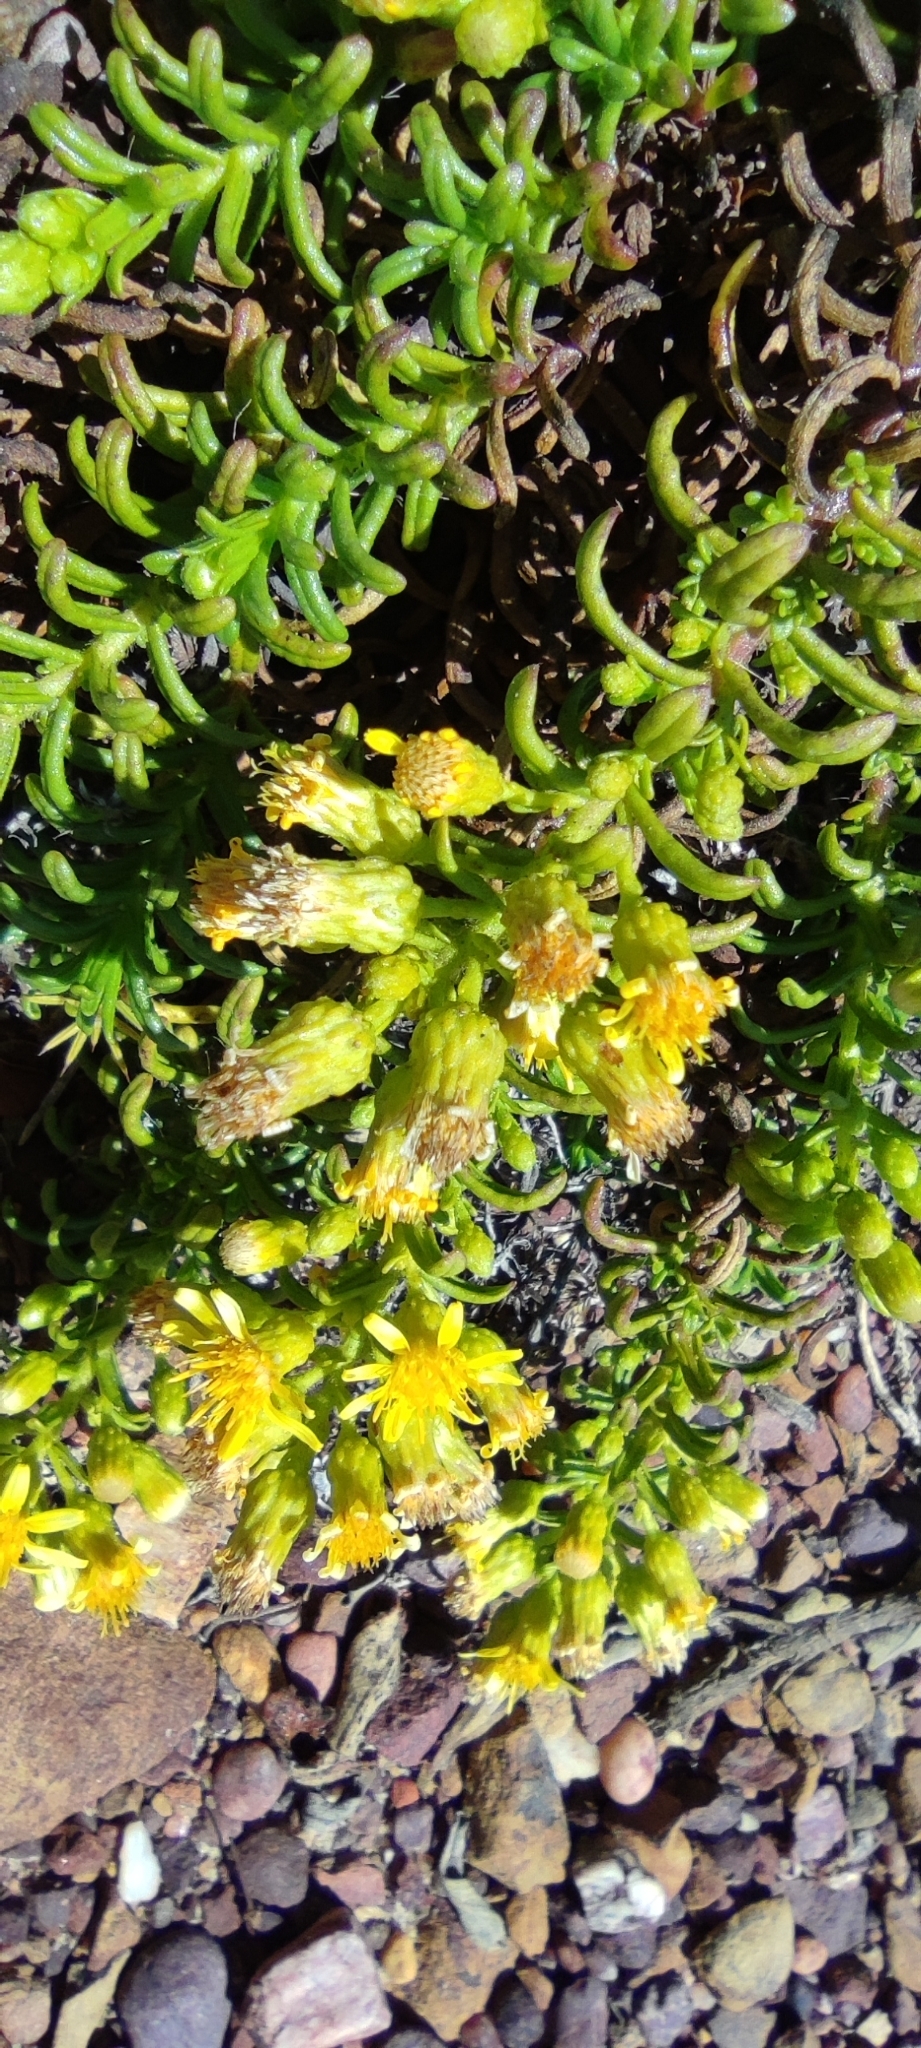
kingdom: Plantae
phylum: Tracheophyta
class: Magnoliopsida
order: Asterales
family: Asteraceae
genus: Dittrichia
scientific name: Dittrichia viscosa
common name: Woody fleabane
